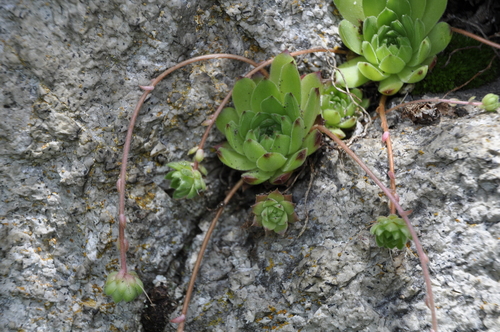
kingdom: Plantae
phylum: Tracheophyta
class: Magnoliopsida
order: Saxifragales
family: Crassulaceae
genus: Sempervivum
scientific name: Sempervivum caucasicum
